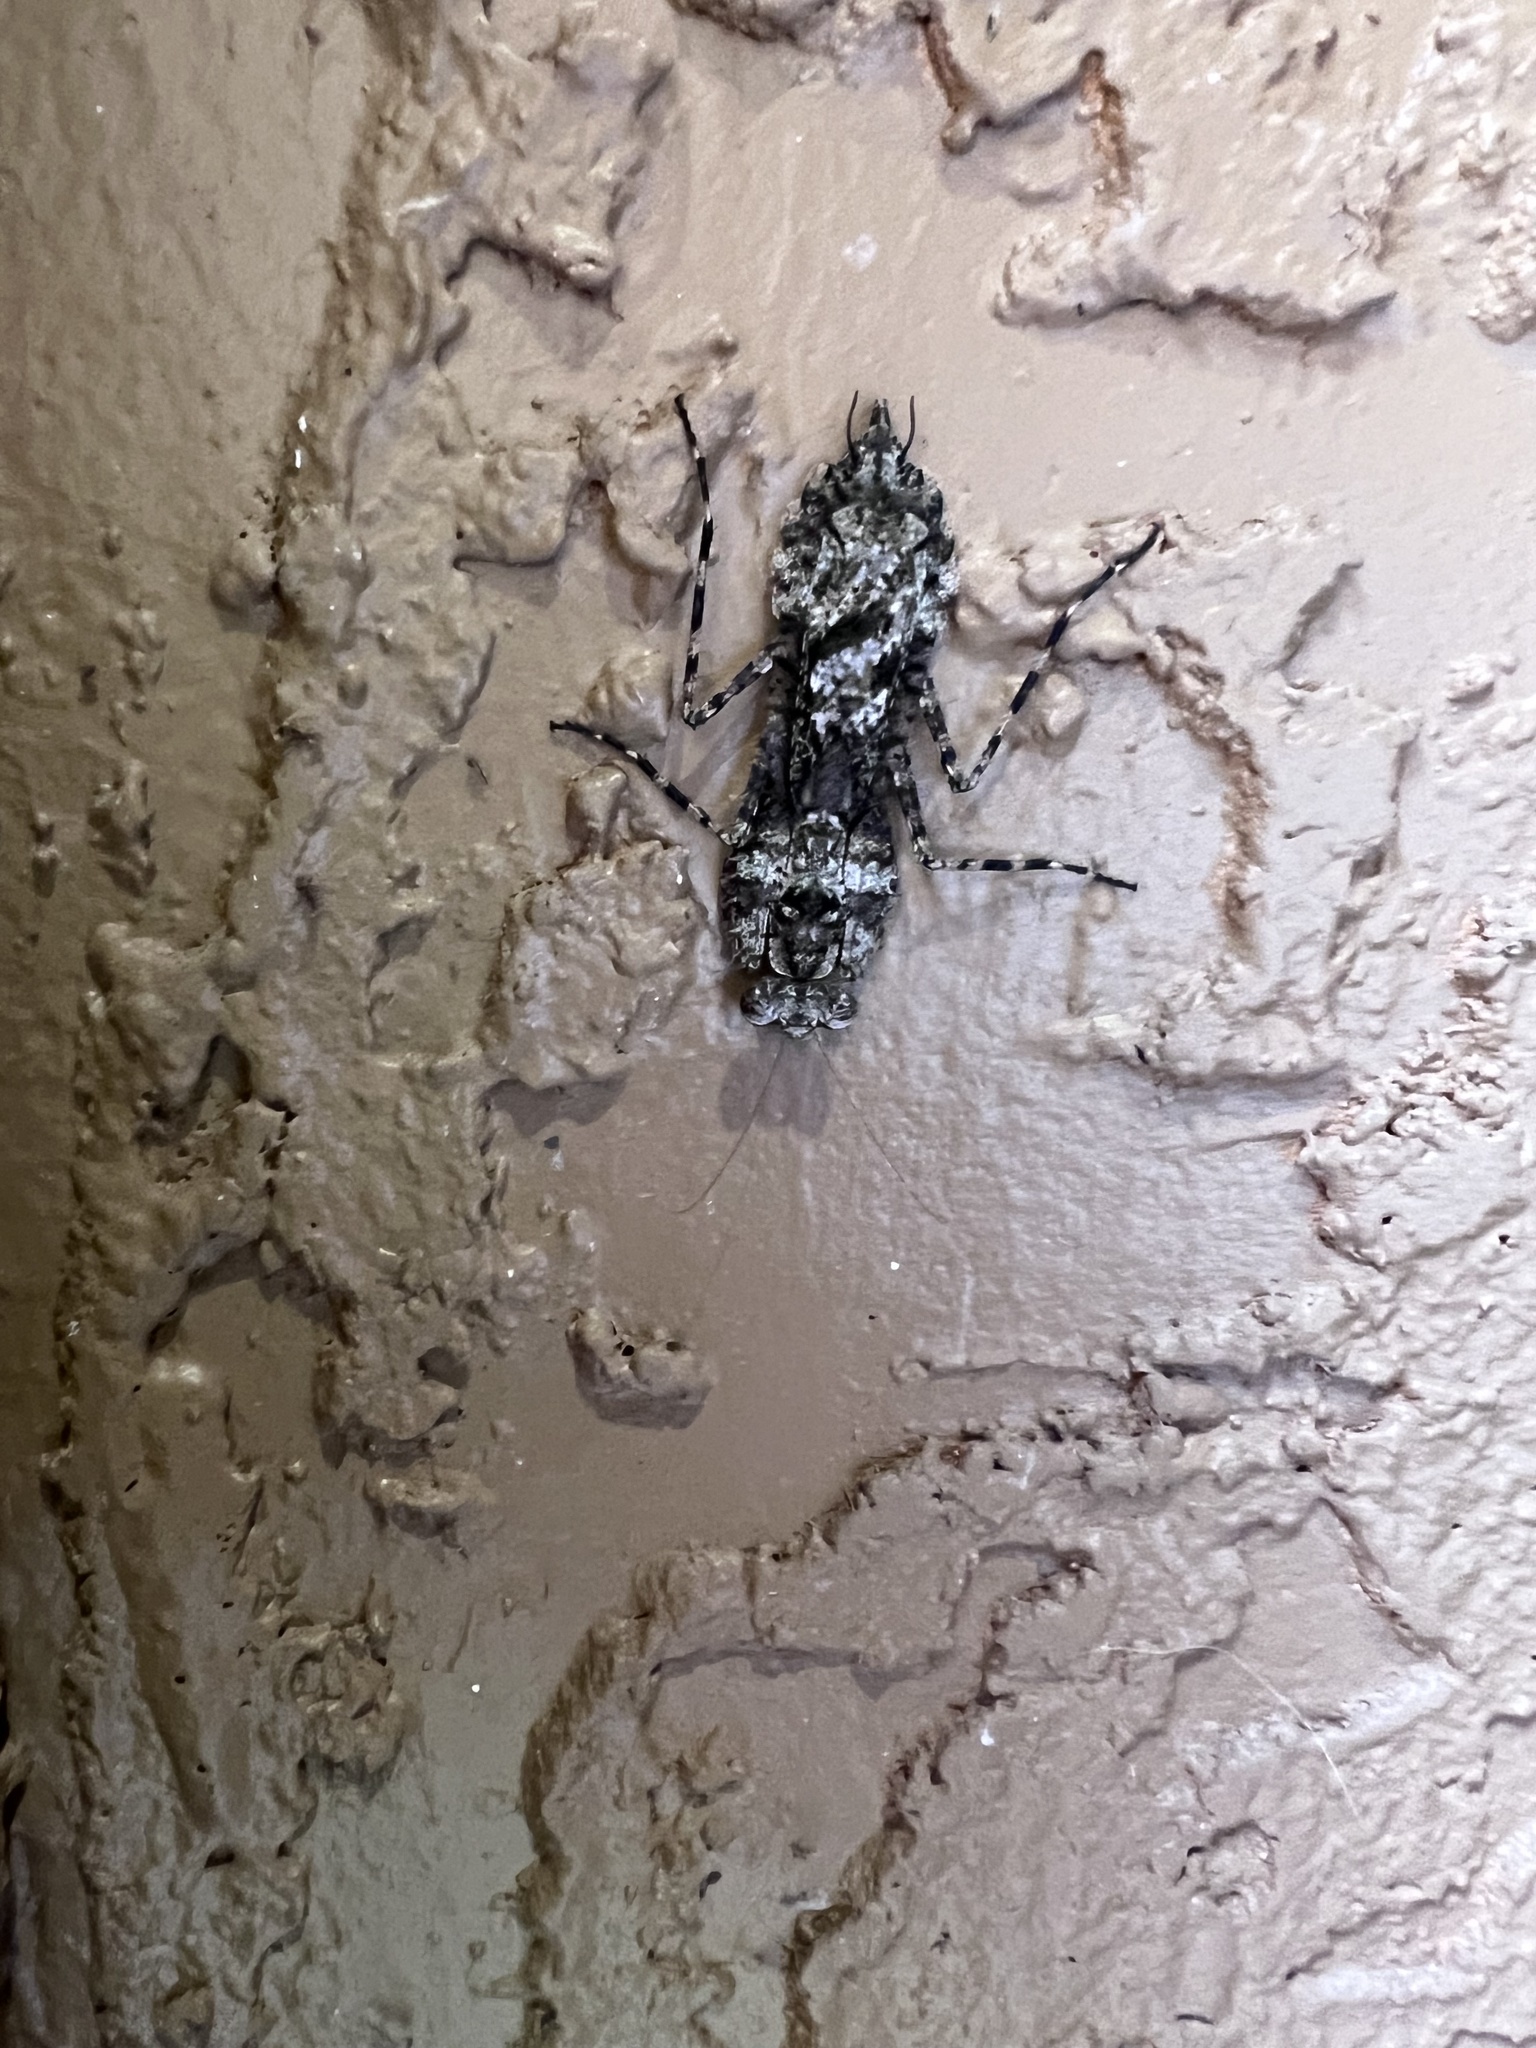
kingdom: Animalia
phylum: Arthropoda
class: Insecta
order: Mantodea
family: Epaphroditidae
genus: Gonatista
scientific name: Gonatista grisea
